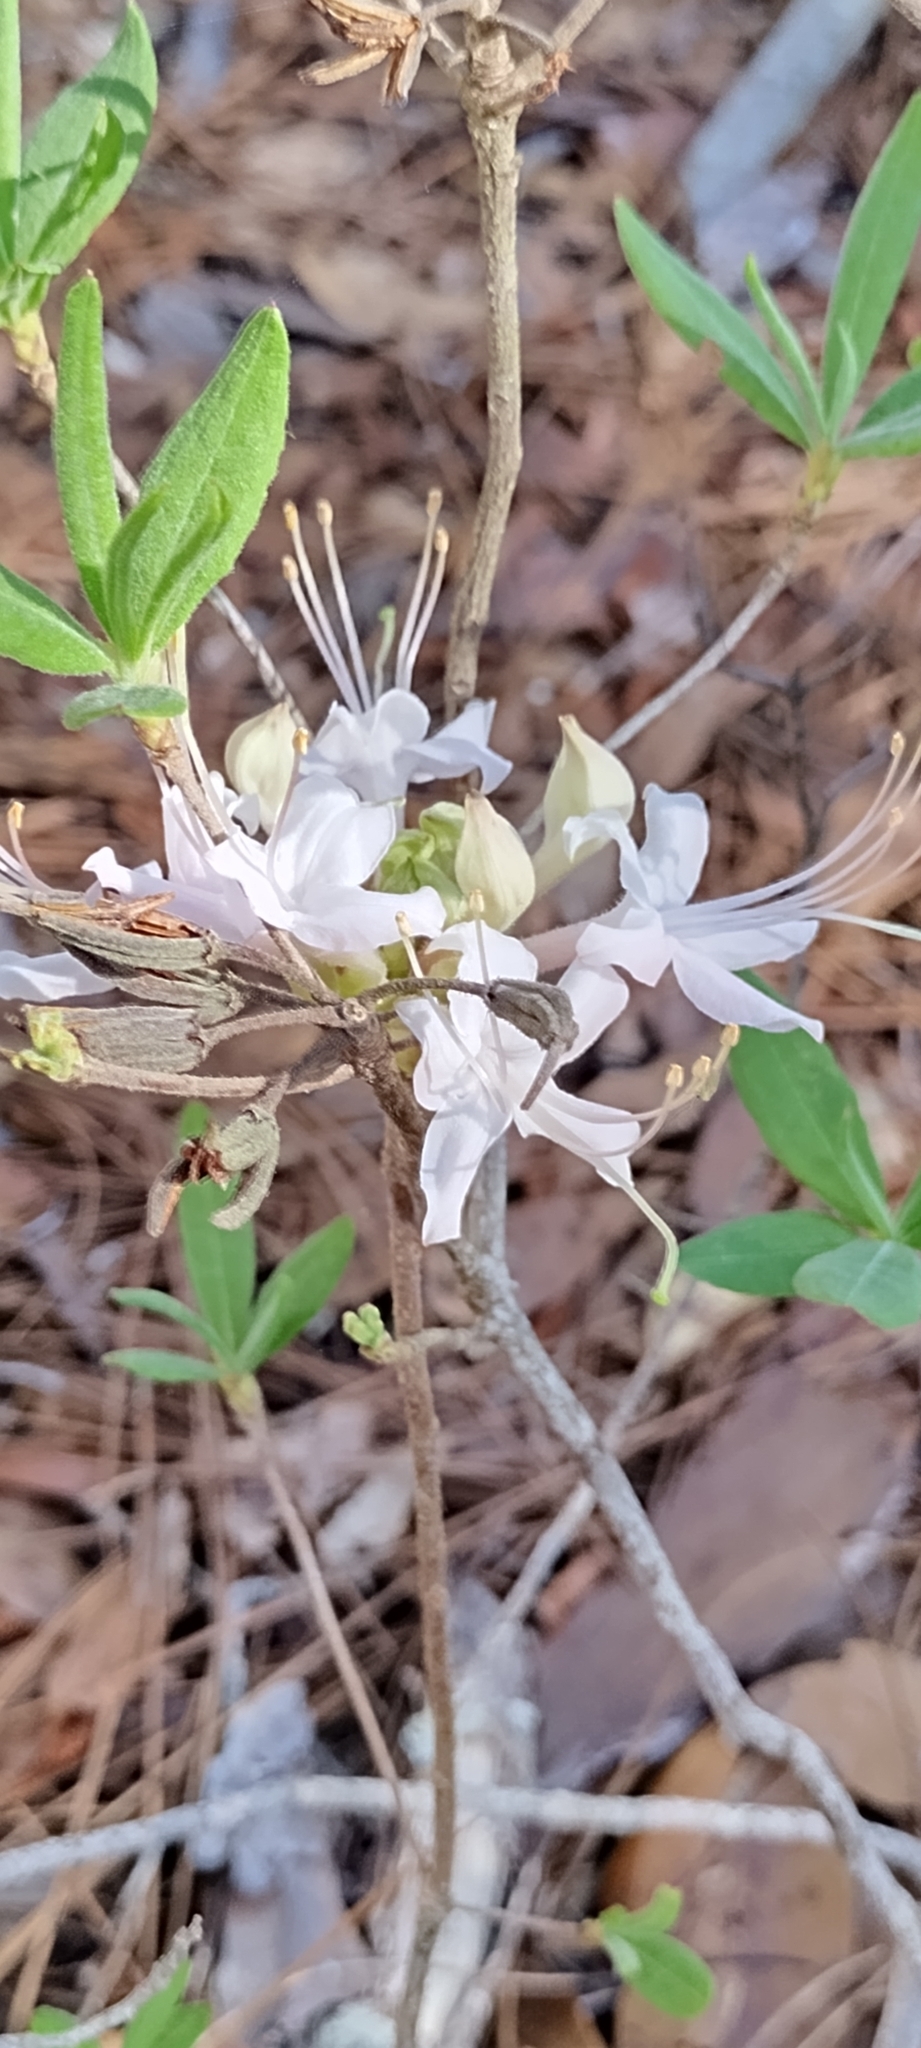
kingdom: Plantae
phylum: Tracheophyta
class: Magnoliopsida
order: Ericales
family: Ericaceae
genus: Rhododendron
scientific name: Rhododendron canescens
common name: Mountain azalea
